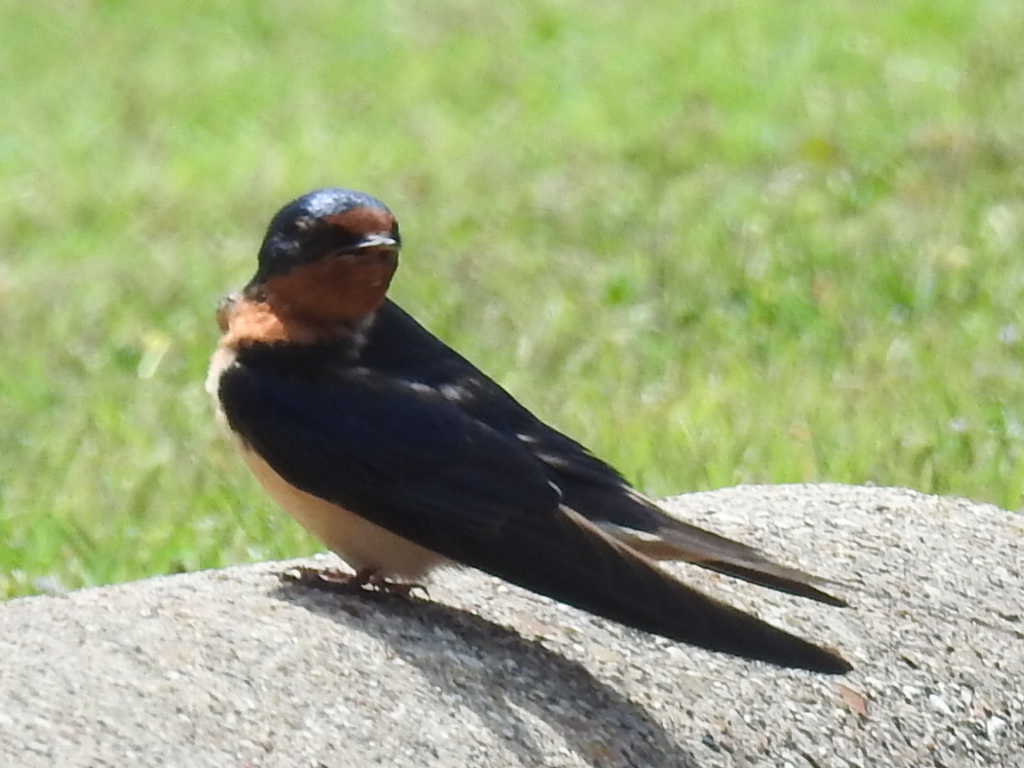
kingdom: Animalia
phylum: Chordata
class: Aves
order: Passeriformes
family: Hirundinidae
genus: Hirundo
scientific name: Hirundo rustica
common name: Barn swallow
